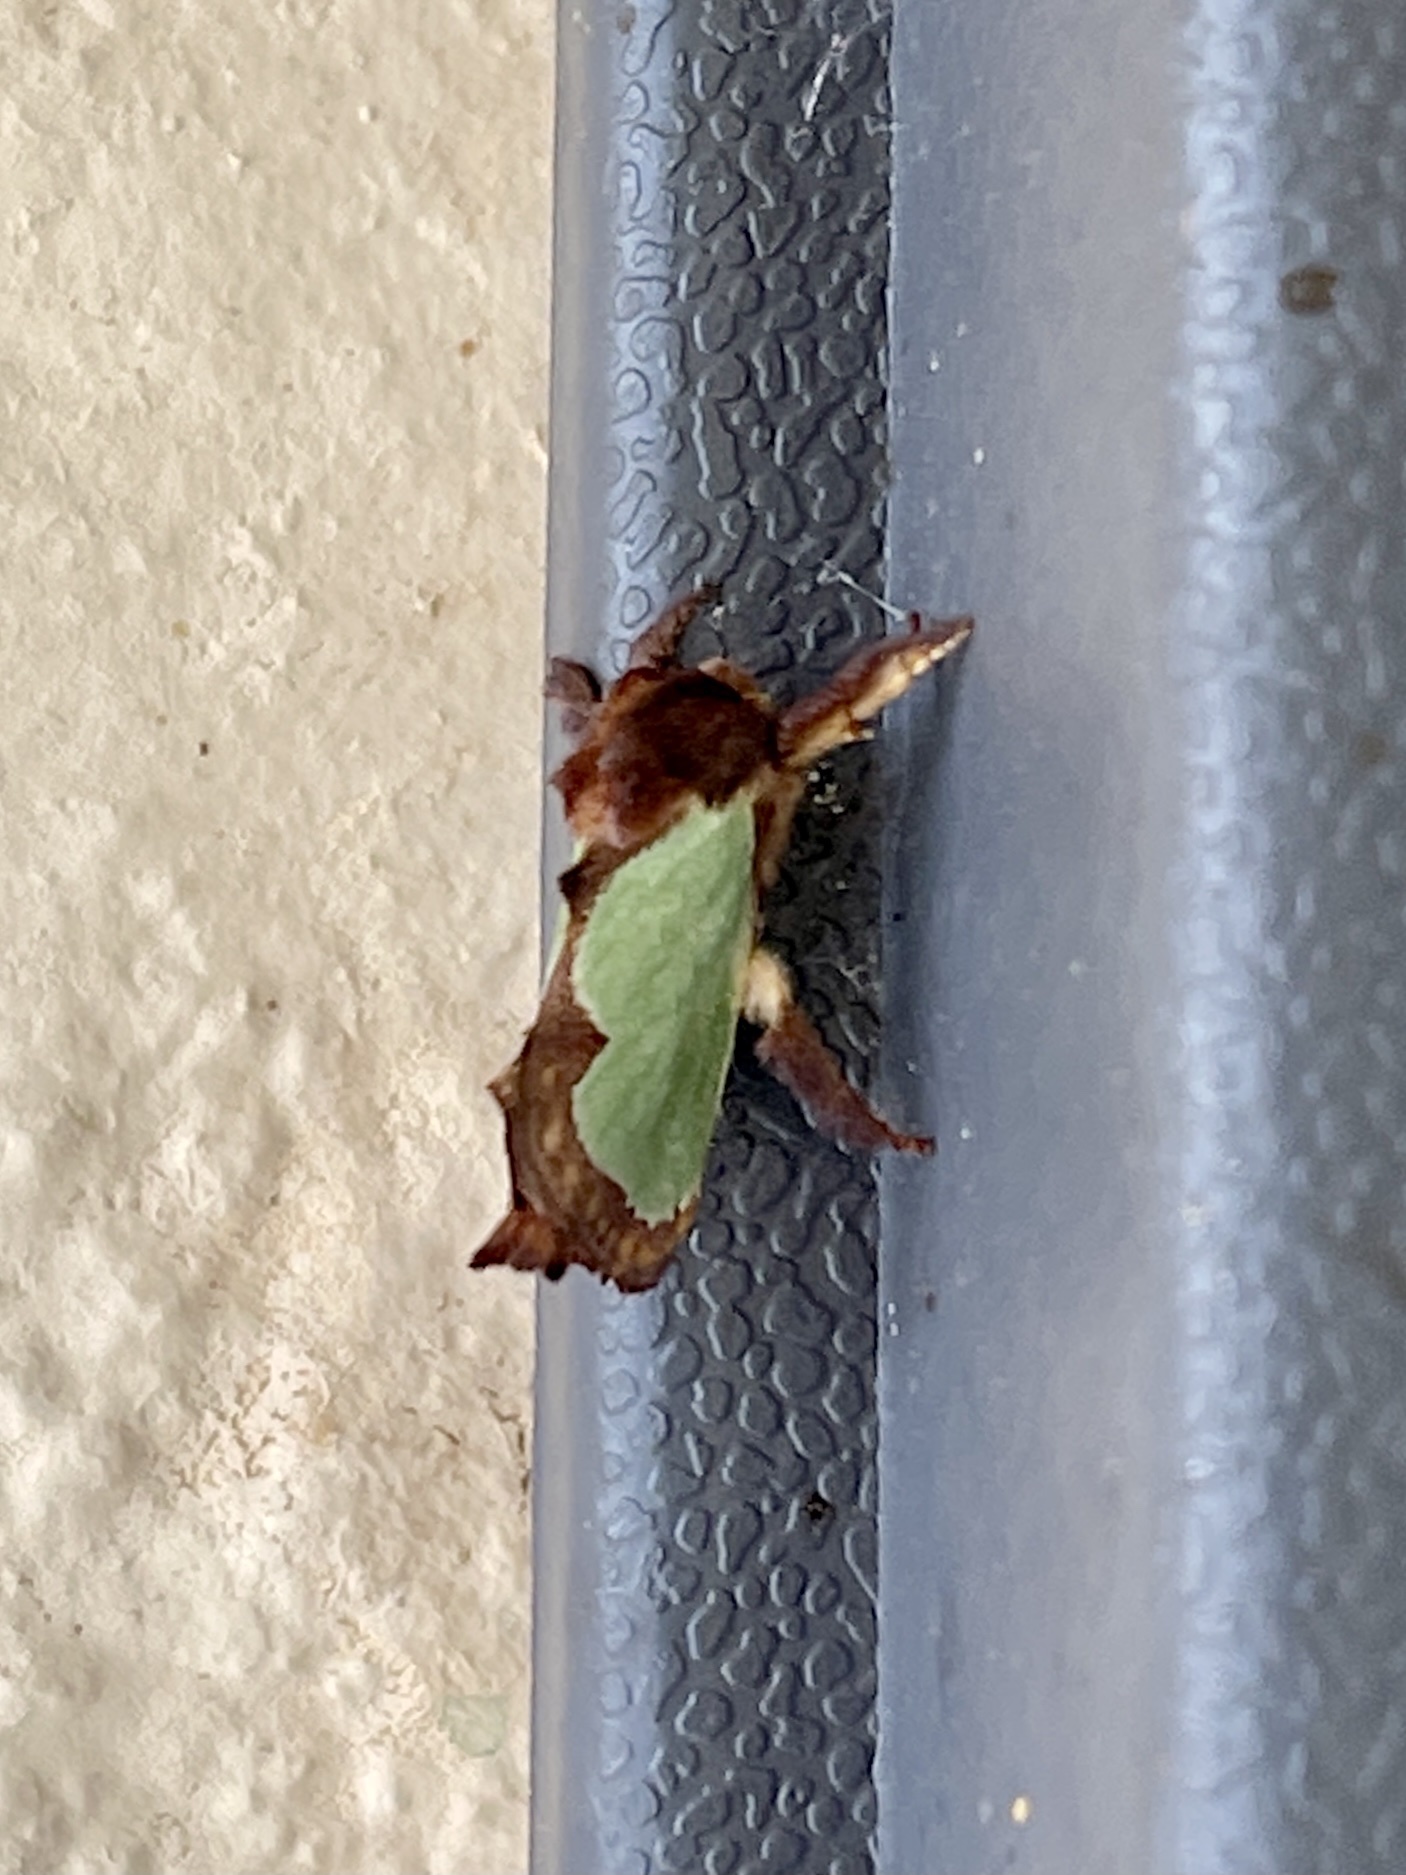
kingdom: Animalia
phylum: Arthropoda
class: Insecta
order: Lepidoptera
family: Limacodidae
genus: Euclea
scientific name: Euclea incisa
